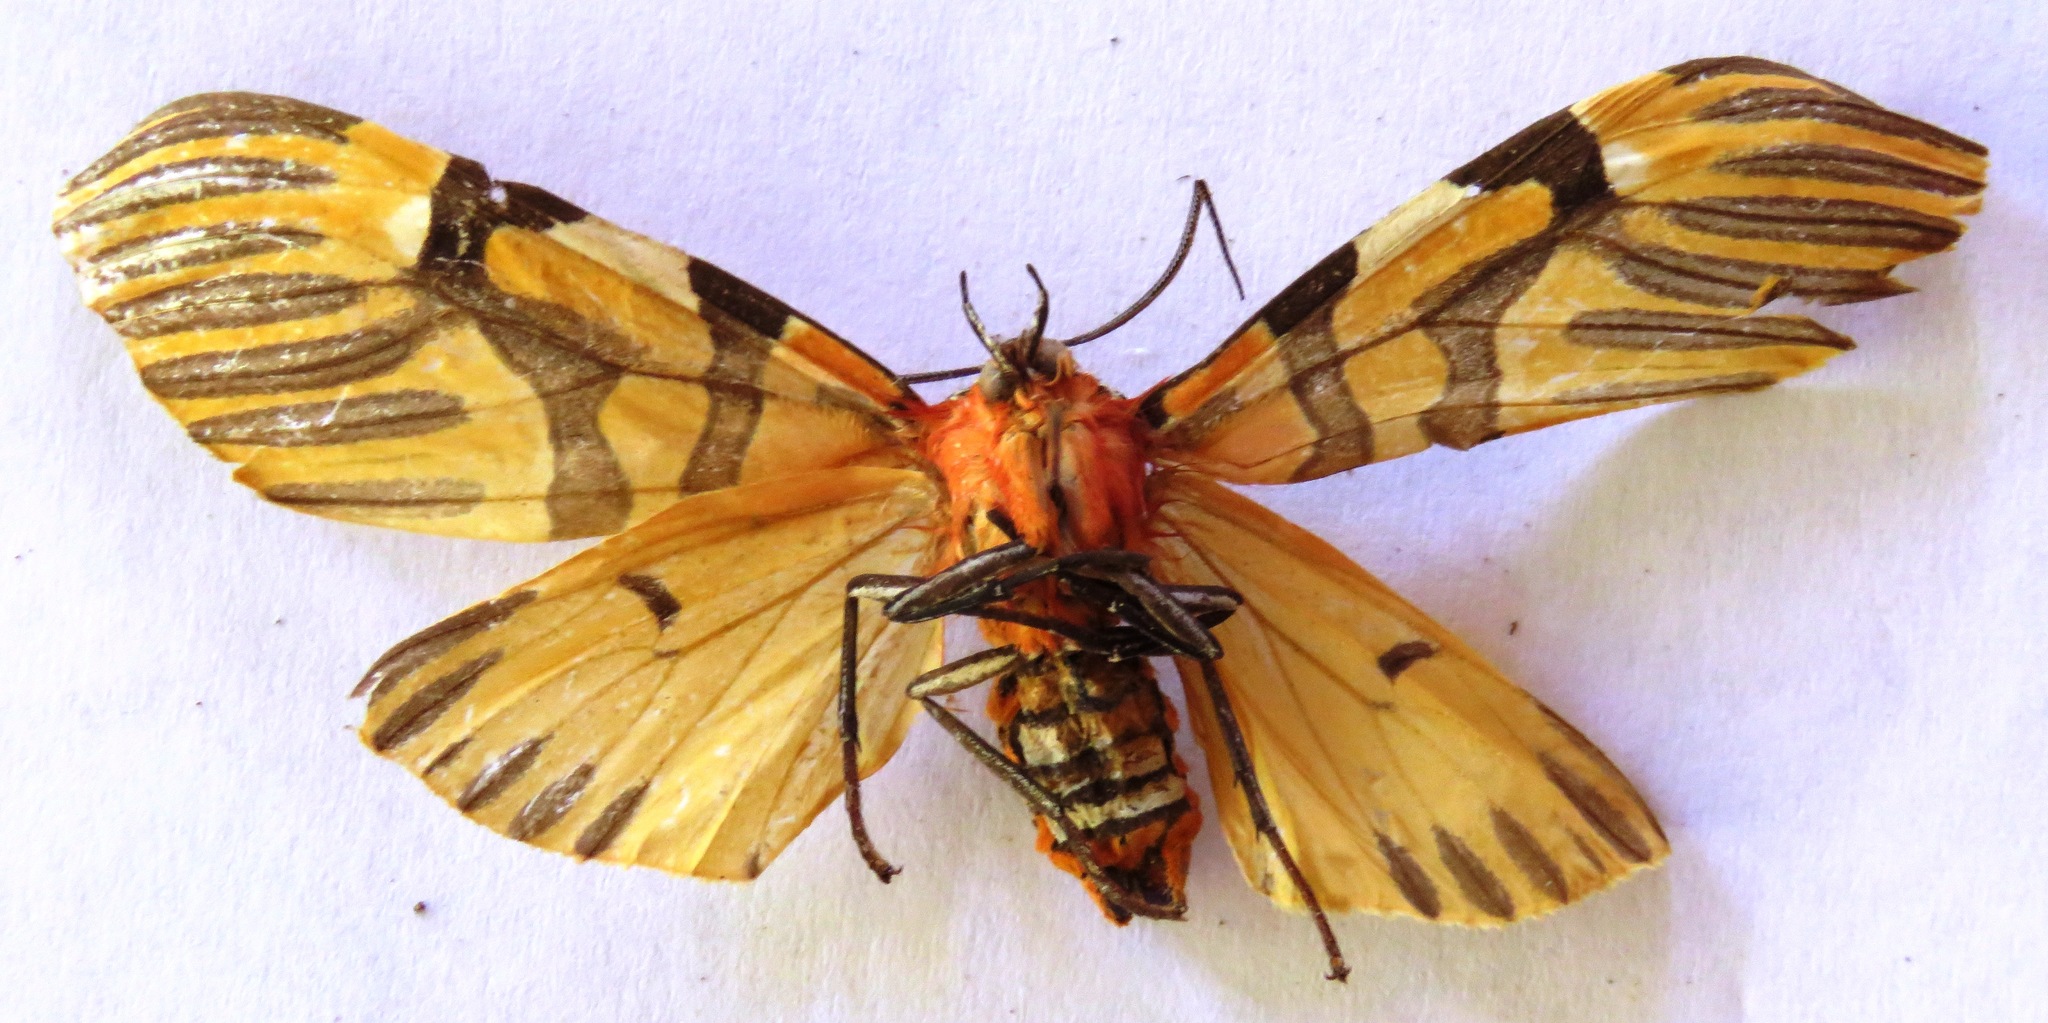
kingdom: Animalia
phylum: Arthropoda
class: Insecta
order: Lepidoptera
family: Erebidae
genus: Anaxita
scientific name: Anaxita decorata
